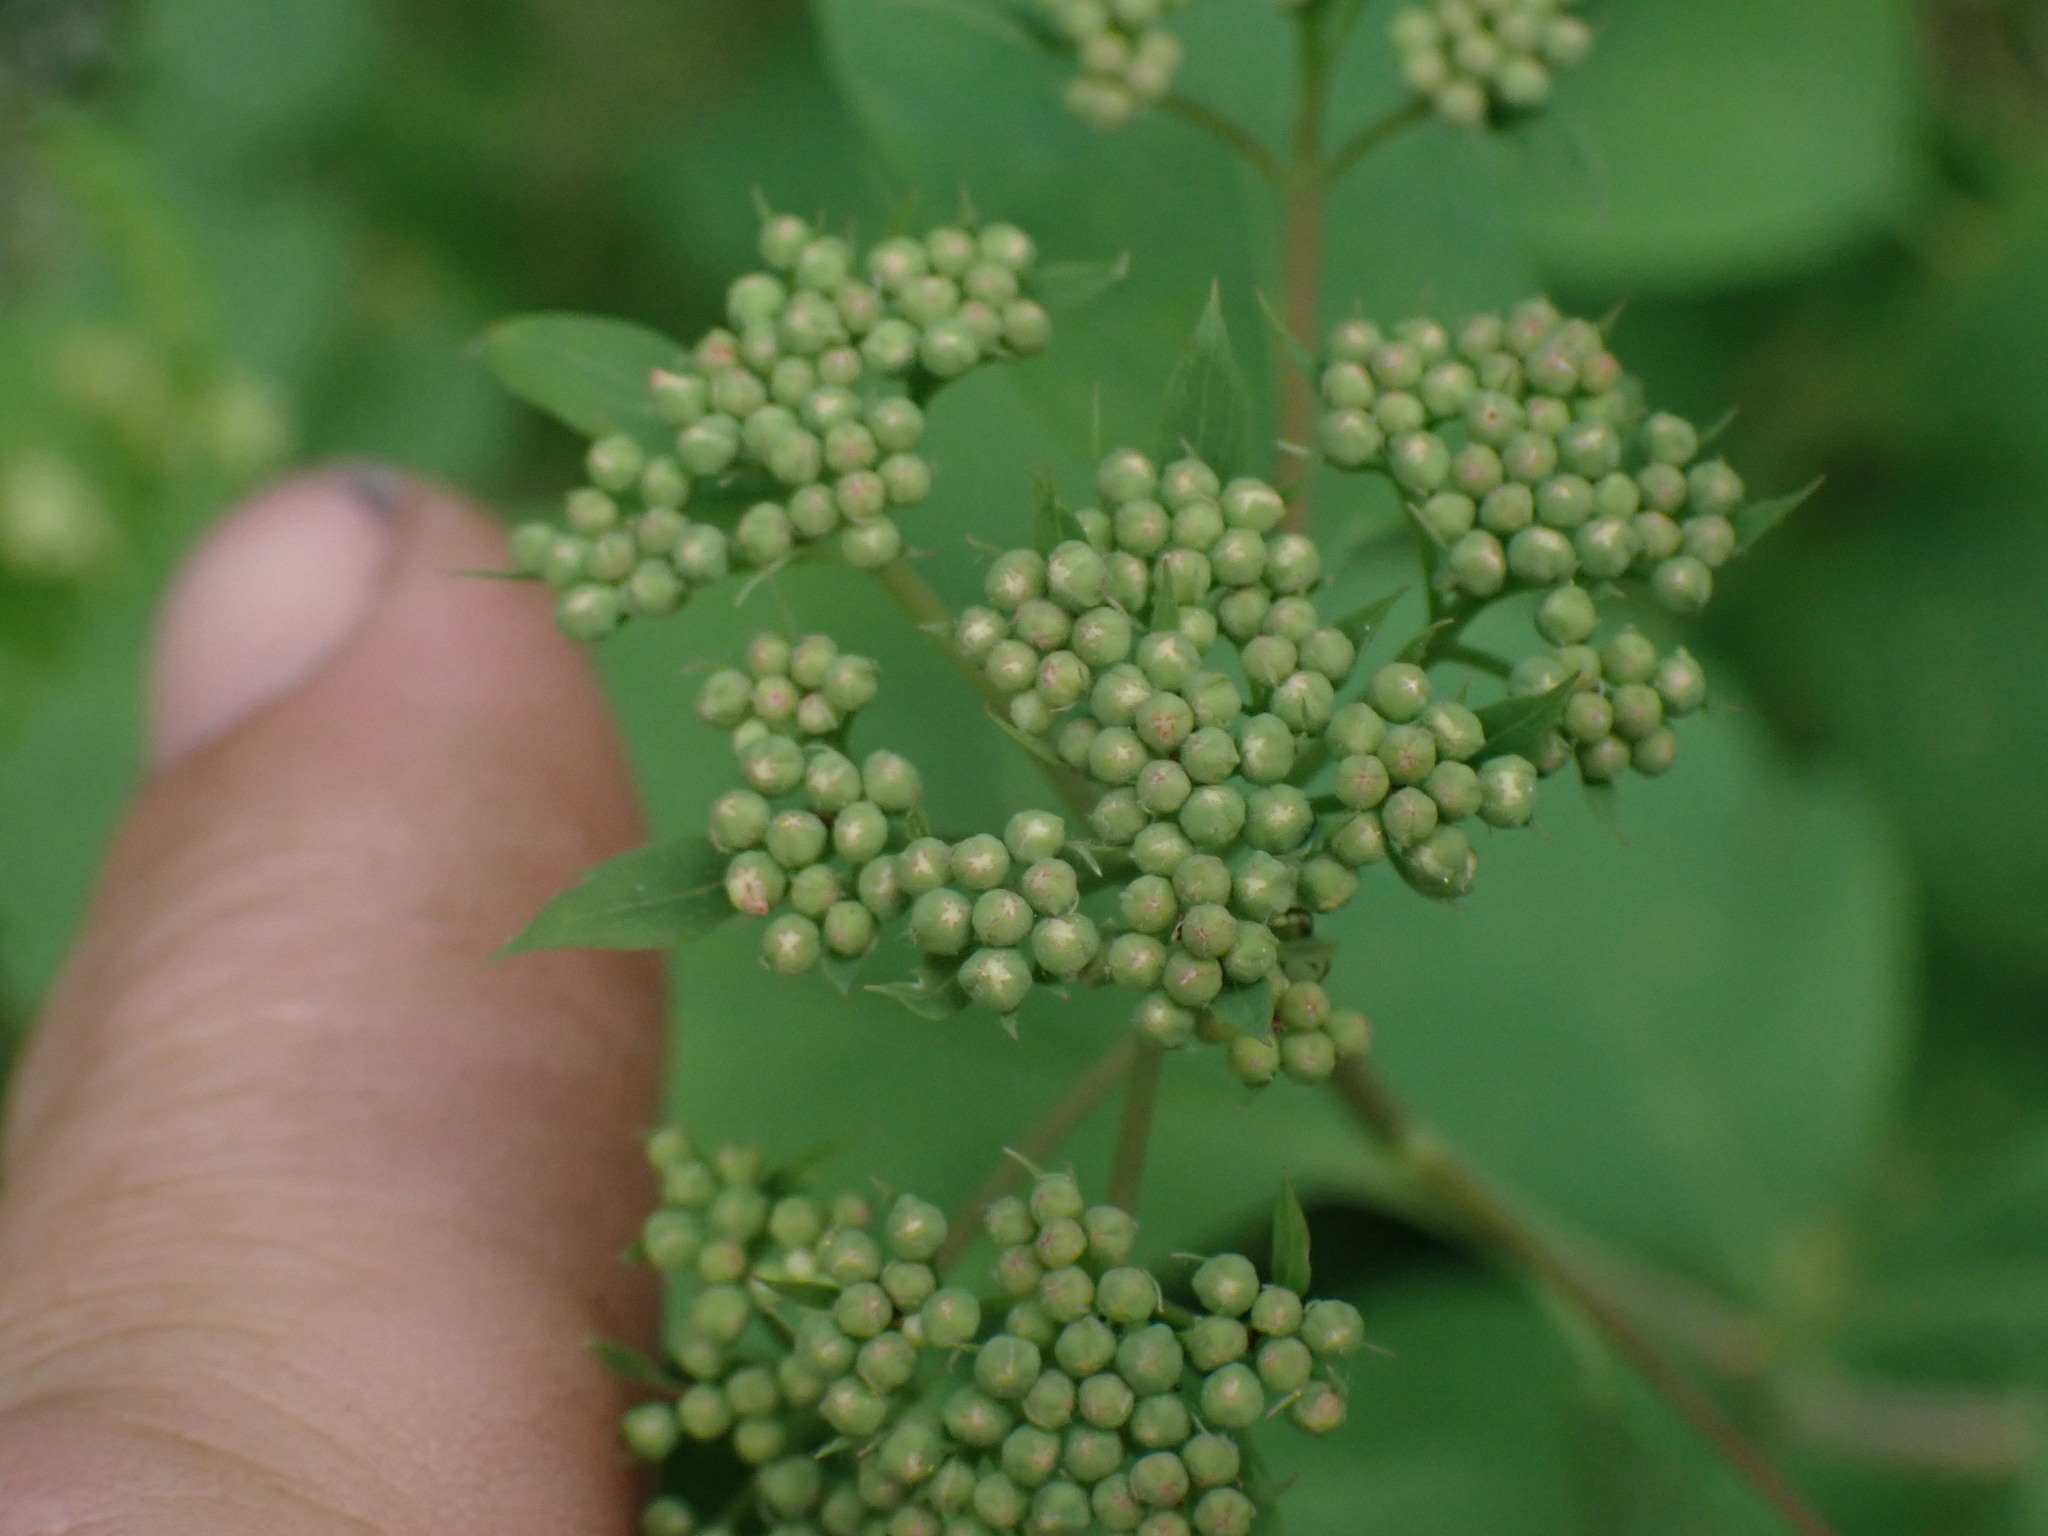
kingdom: Plantae
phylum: Tracheophyta
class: Magnoliopsida
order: Rosales
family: Rosaceae
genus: Spiraea
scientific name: Spiraea lucida
